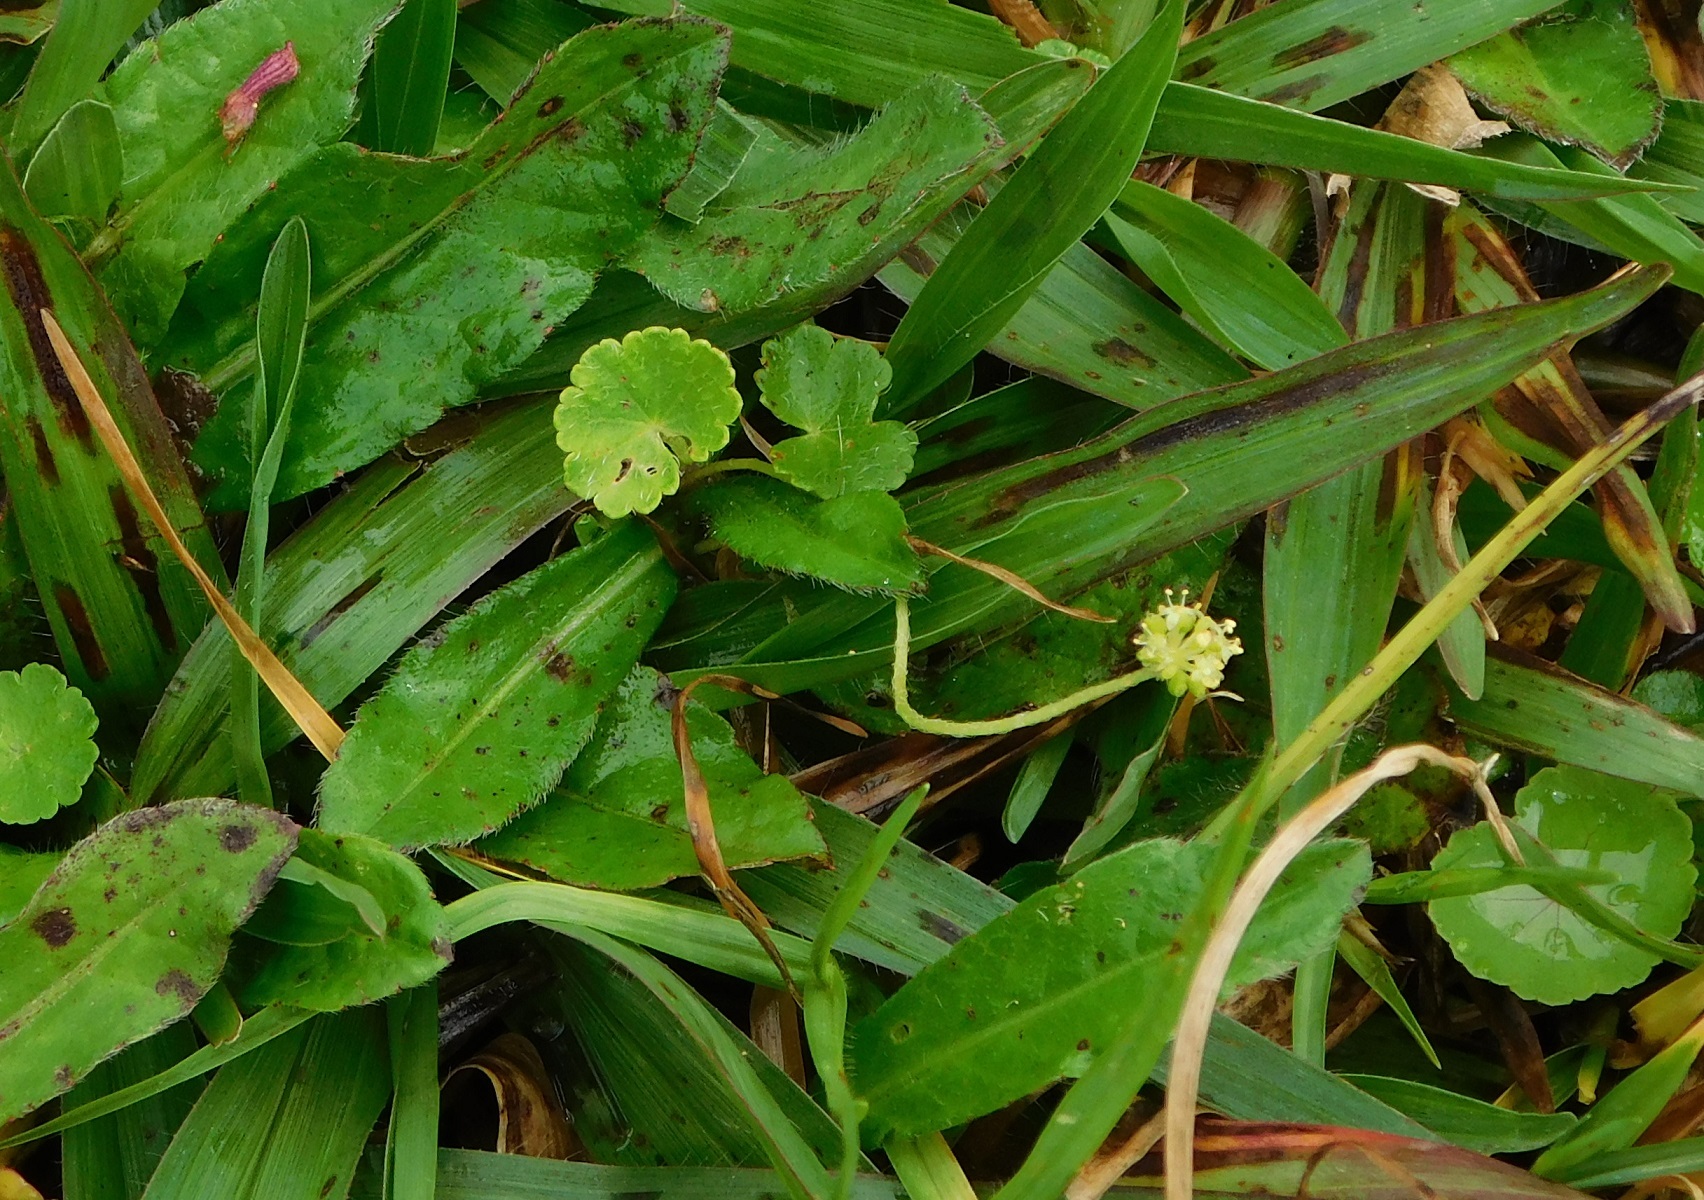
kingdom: Plantae
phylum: Tracheophyta
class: Magnoliopsida
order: Apiales
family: Araliaceae
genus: Hydrocotyle
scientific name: Hydrocotyle bonplandii
